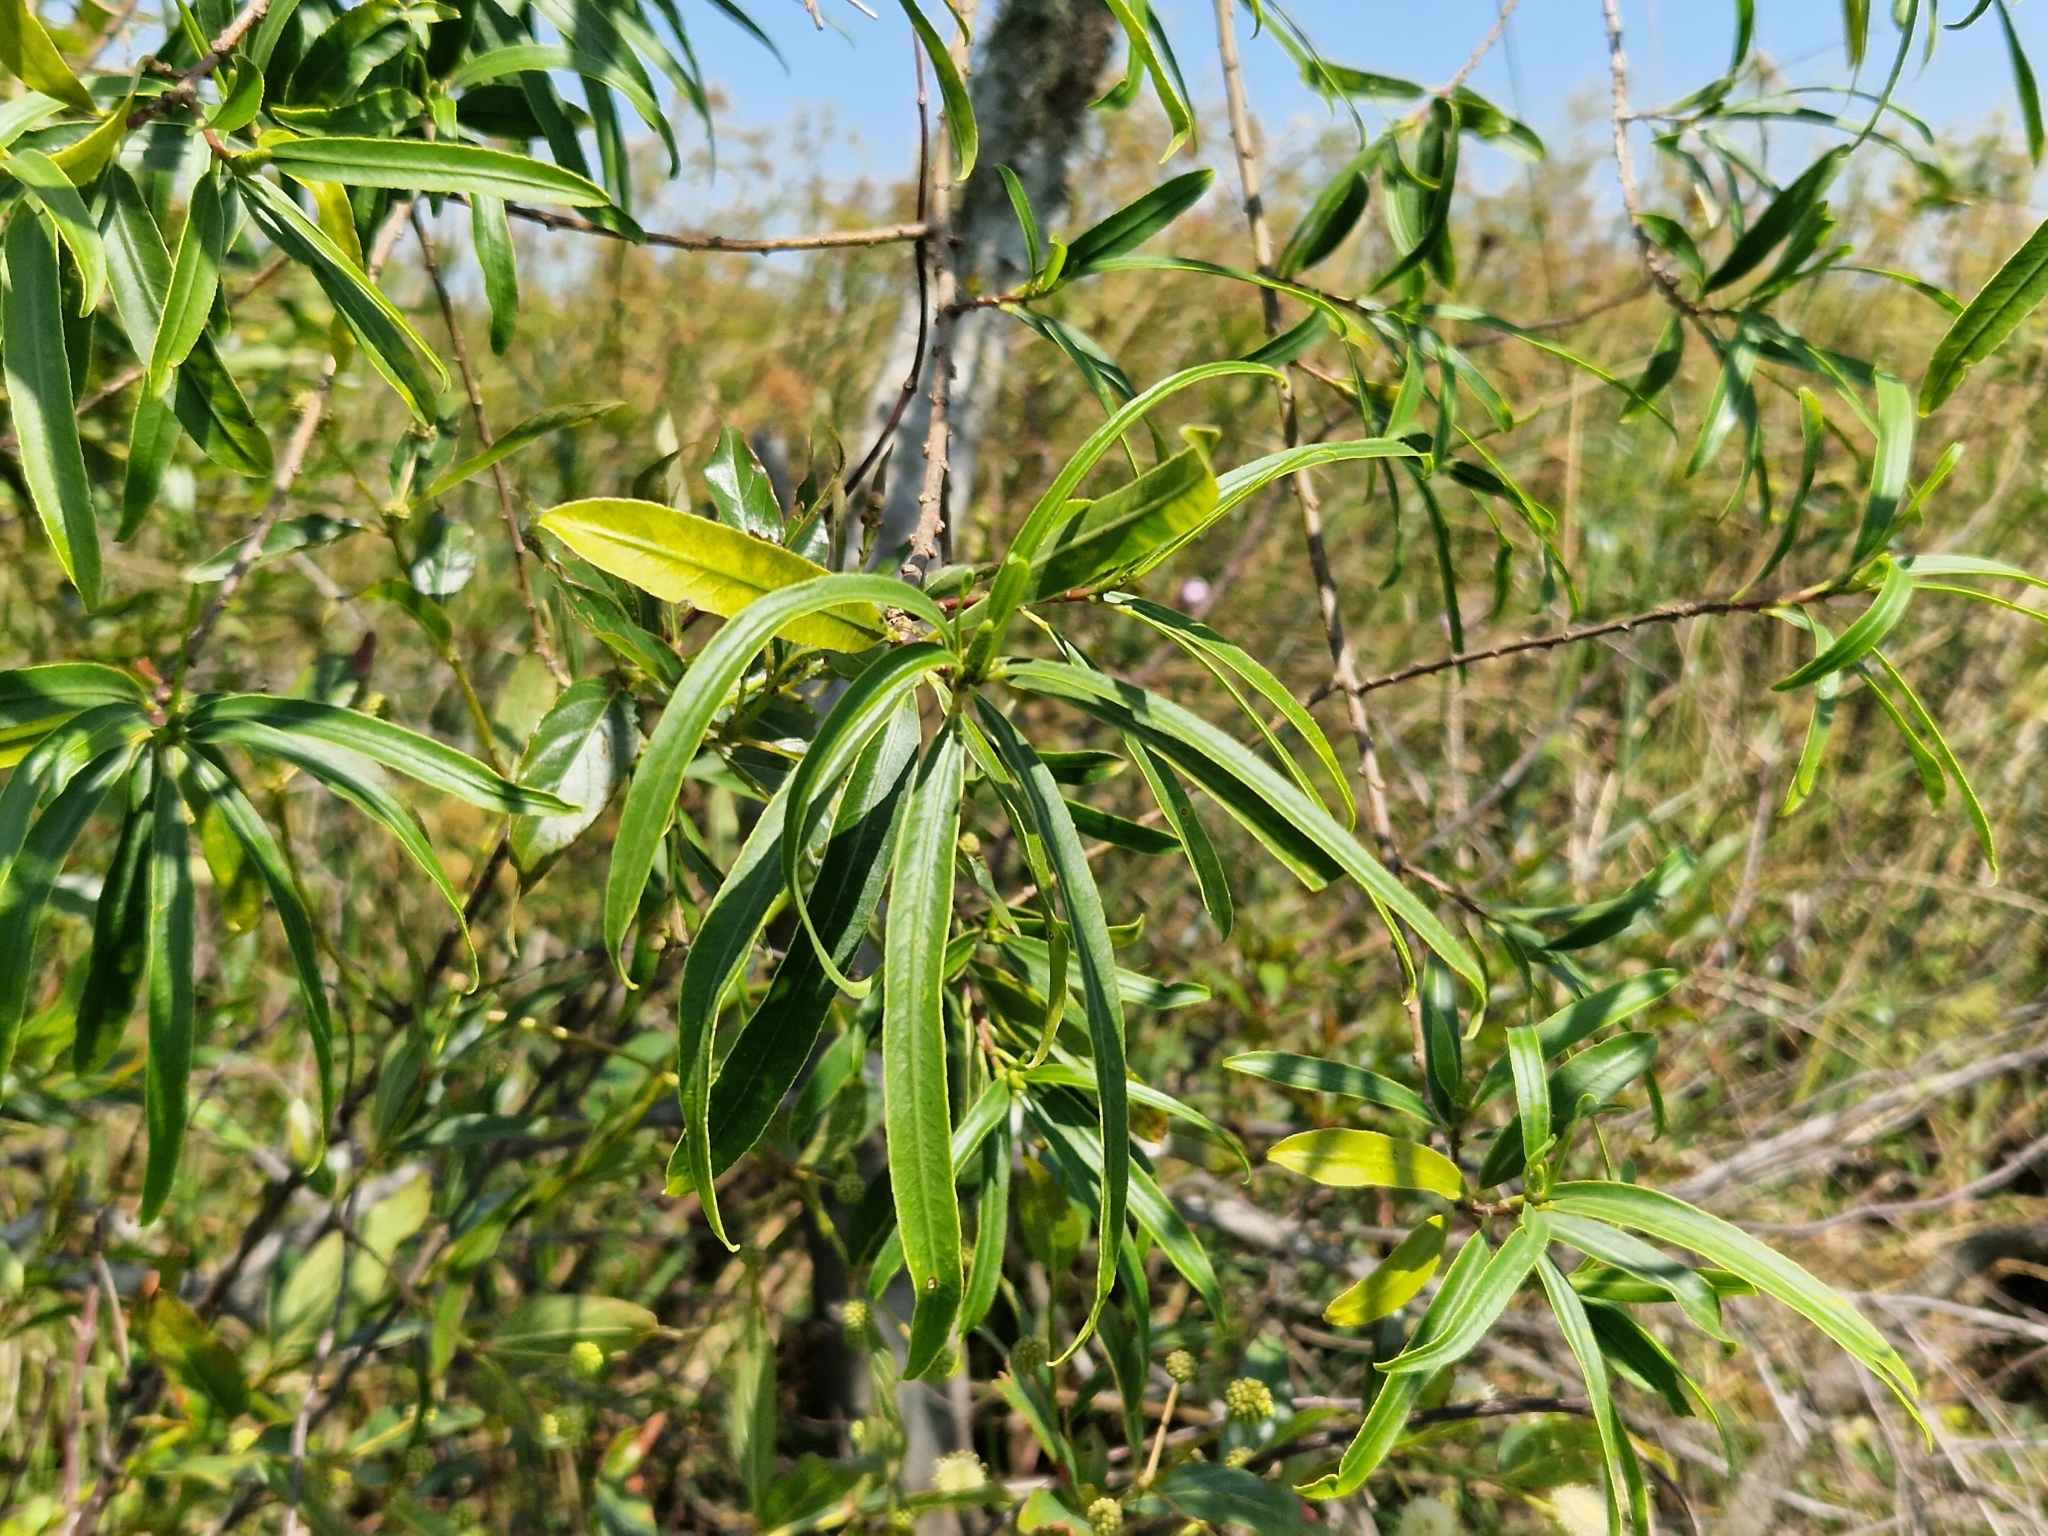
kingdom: Plantae
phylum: Tracheophyta
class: Magnoliopsida
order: Malpighiales
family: Euphorbiaceae
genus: Sapium
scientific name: Sapium haematospermum
